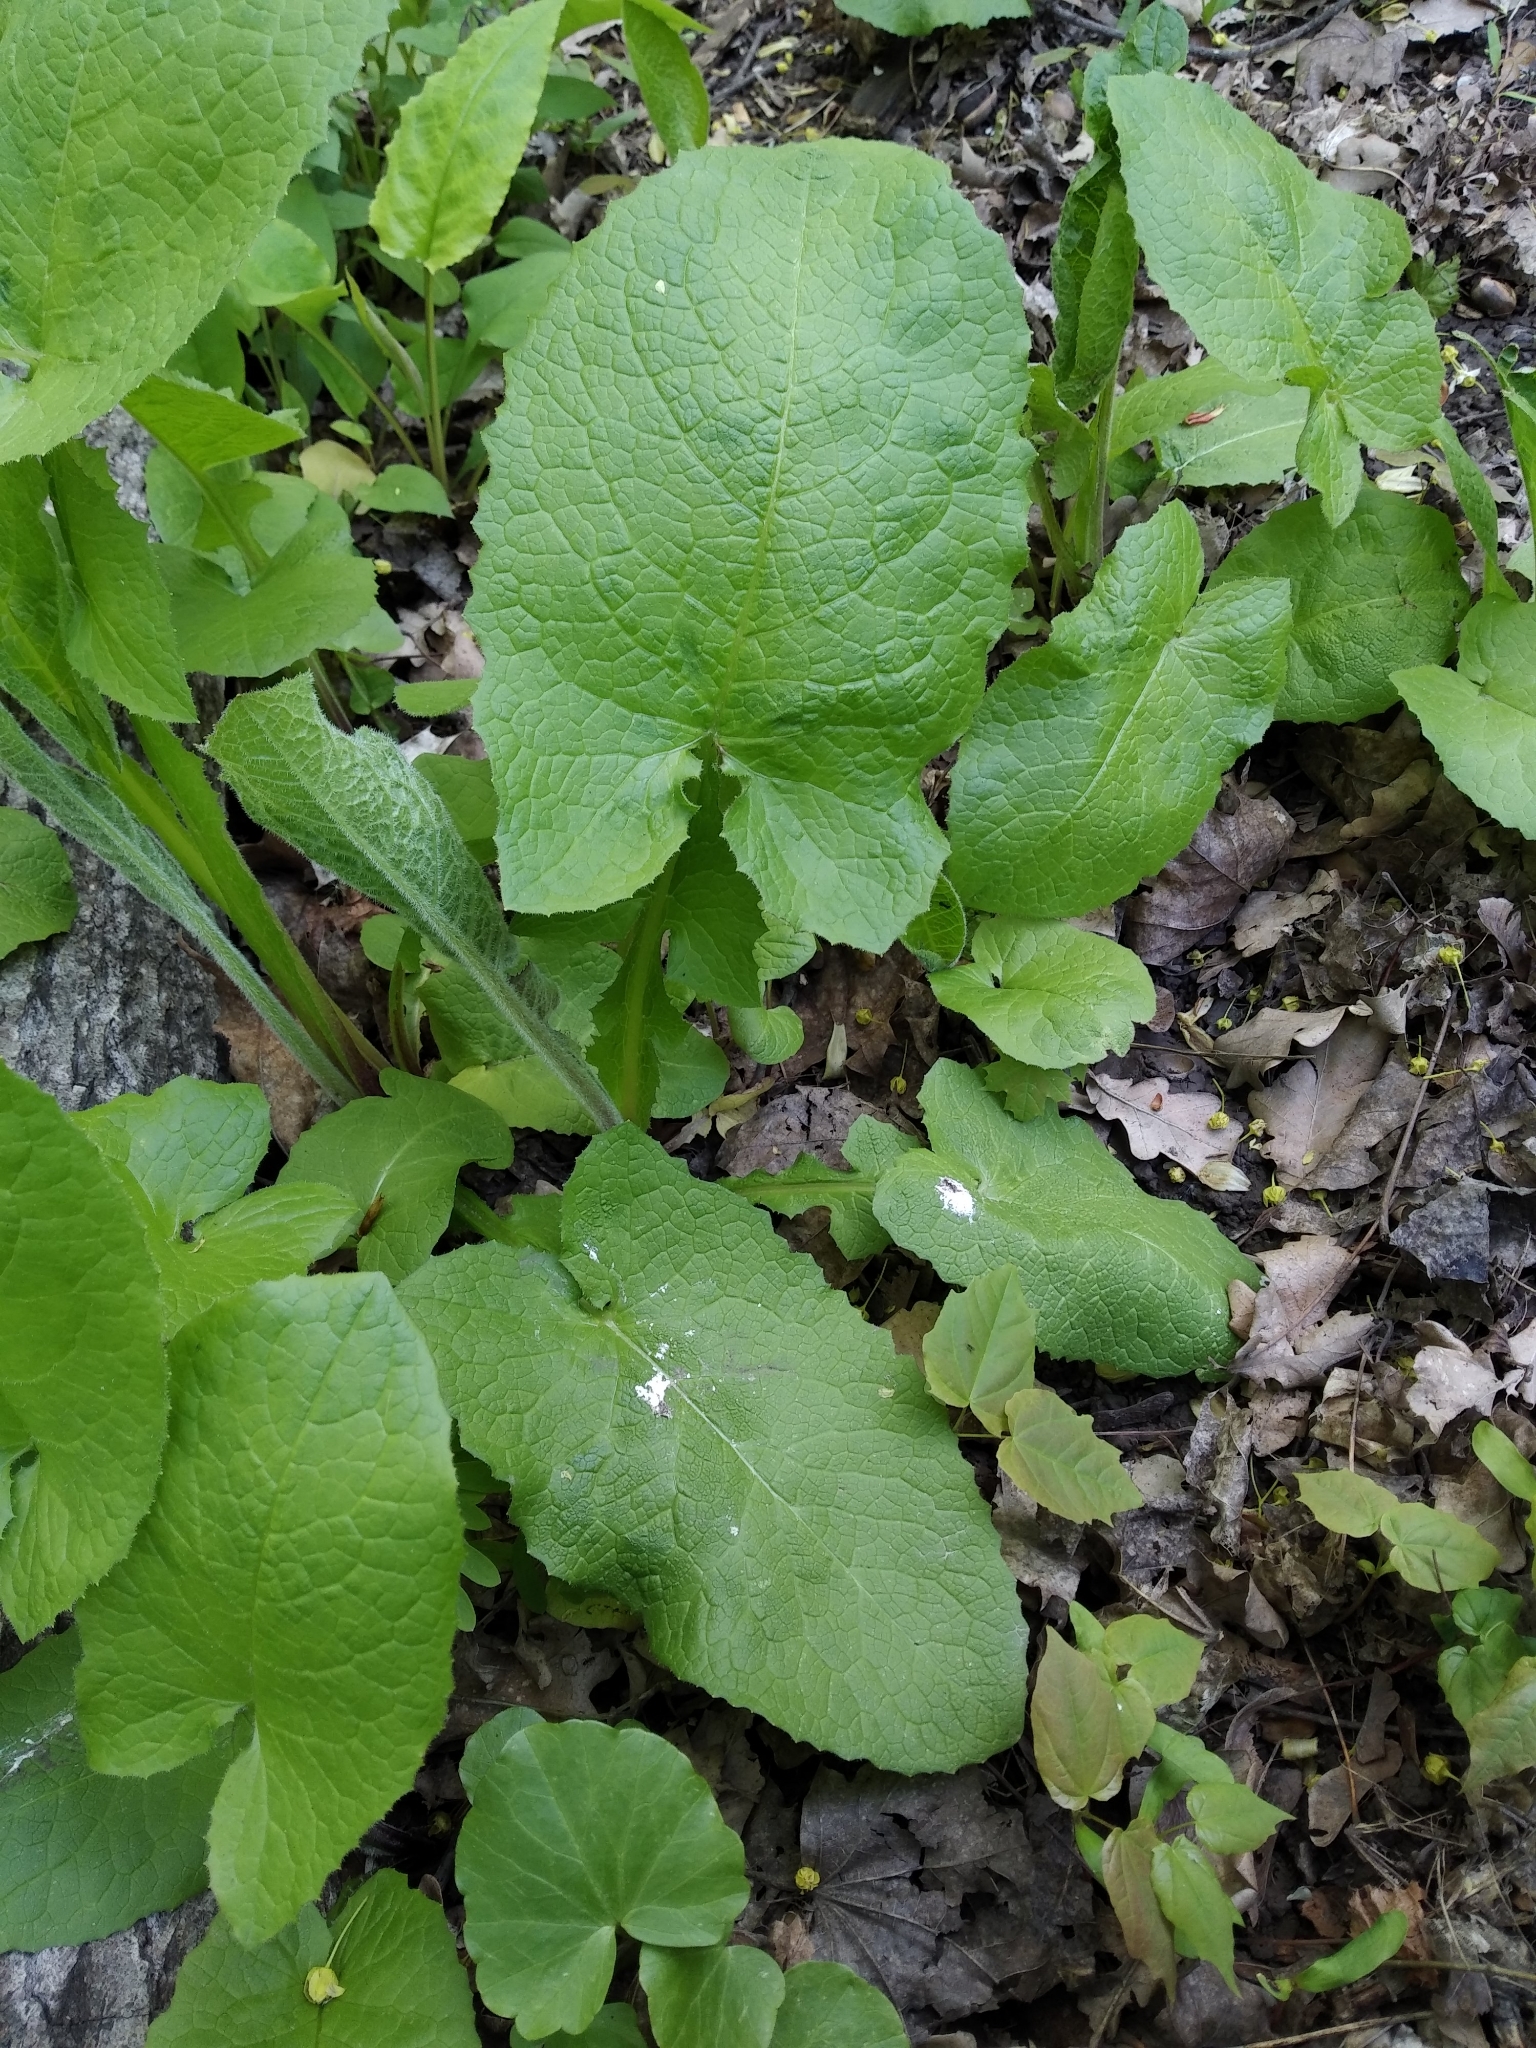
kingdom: Plantae
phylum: Tracheophyta
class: Magnoliopsida
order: Asterales
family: Asteraceae
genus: Lactuca
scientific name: Lactuca macrophylla
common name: Common blue-sow-thistle
